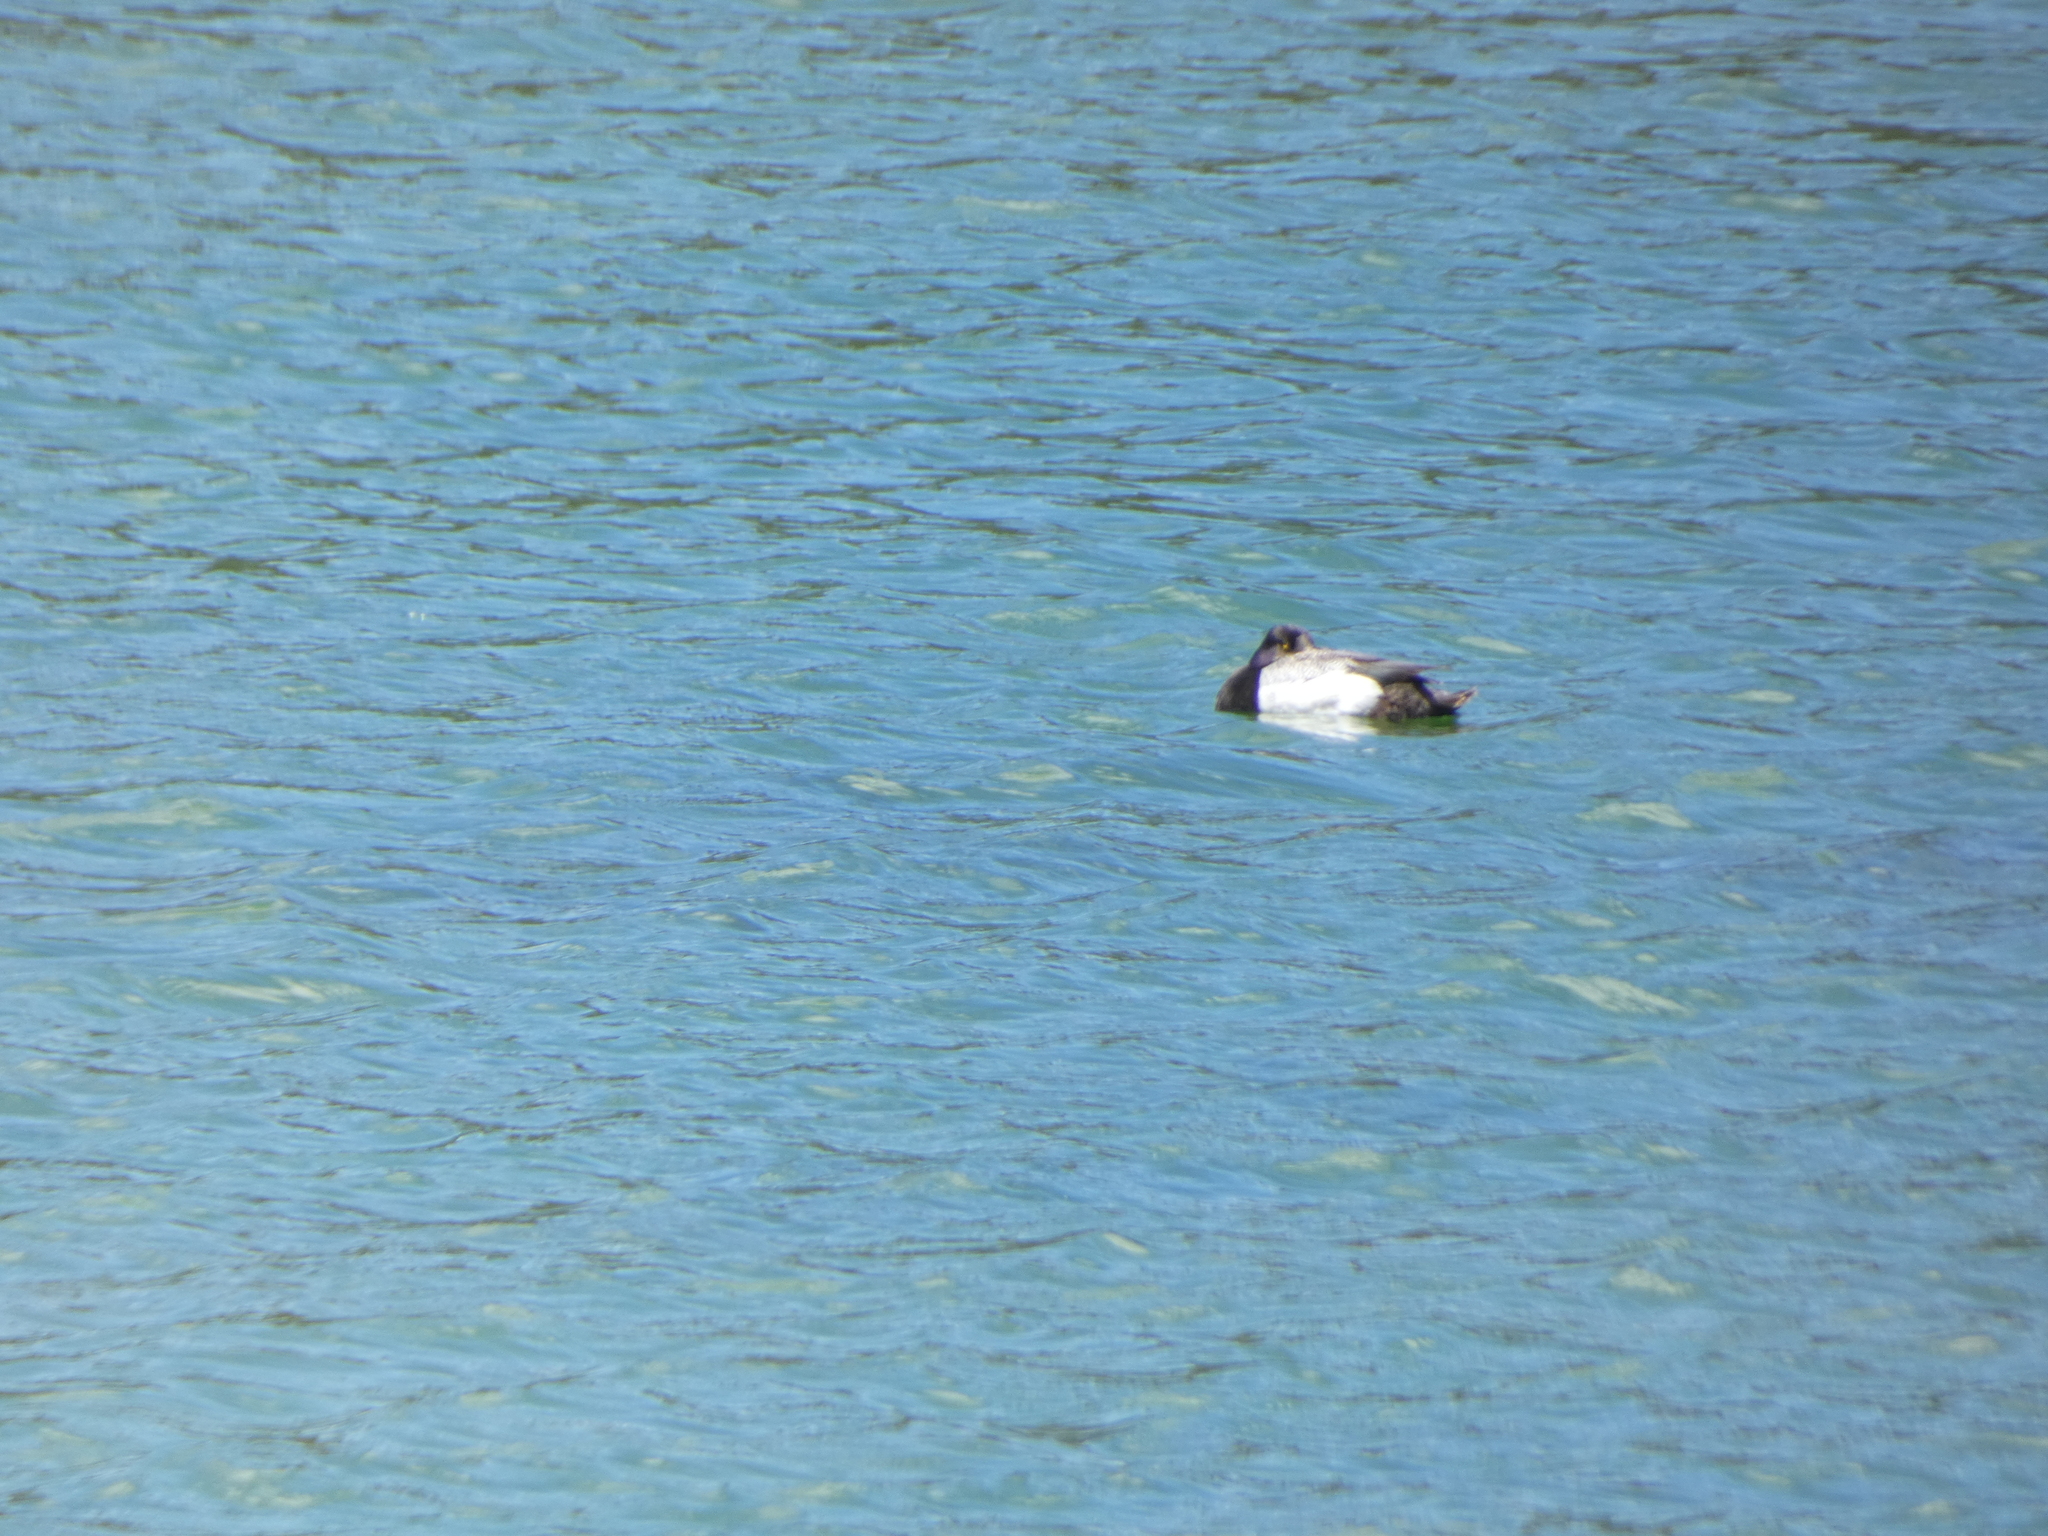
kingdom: Animalia
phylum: Chordata
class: Aves
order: Anseriformes
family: Anatidae
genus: Aythya
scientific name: Aythya affinis
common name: Lesser scaup
